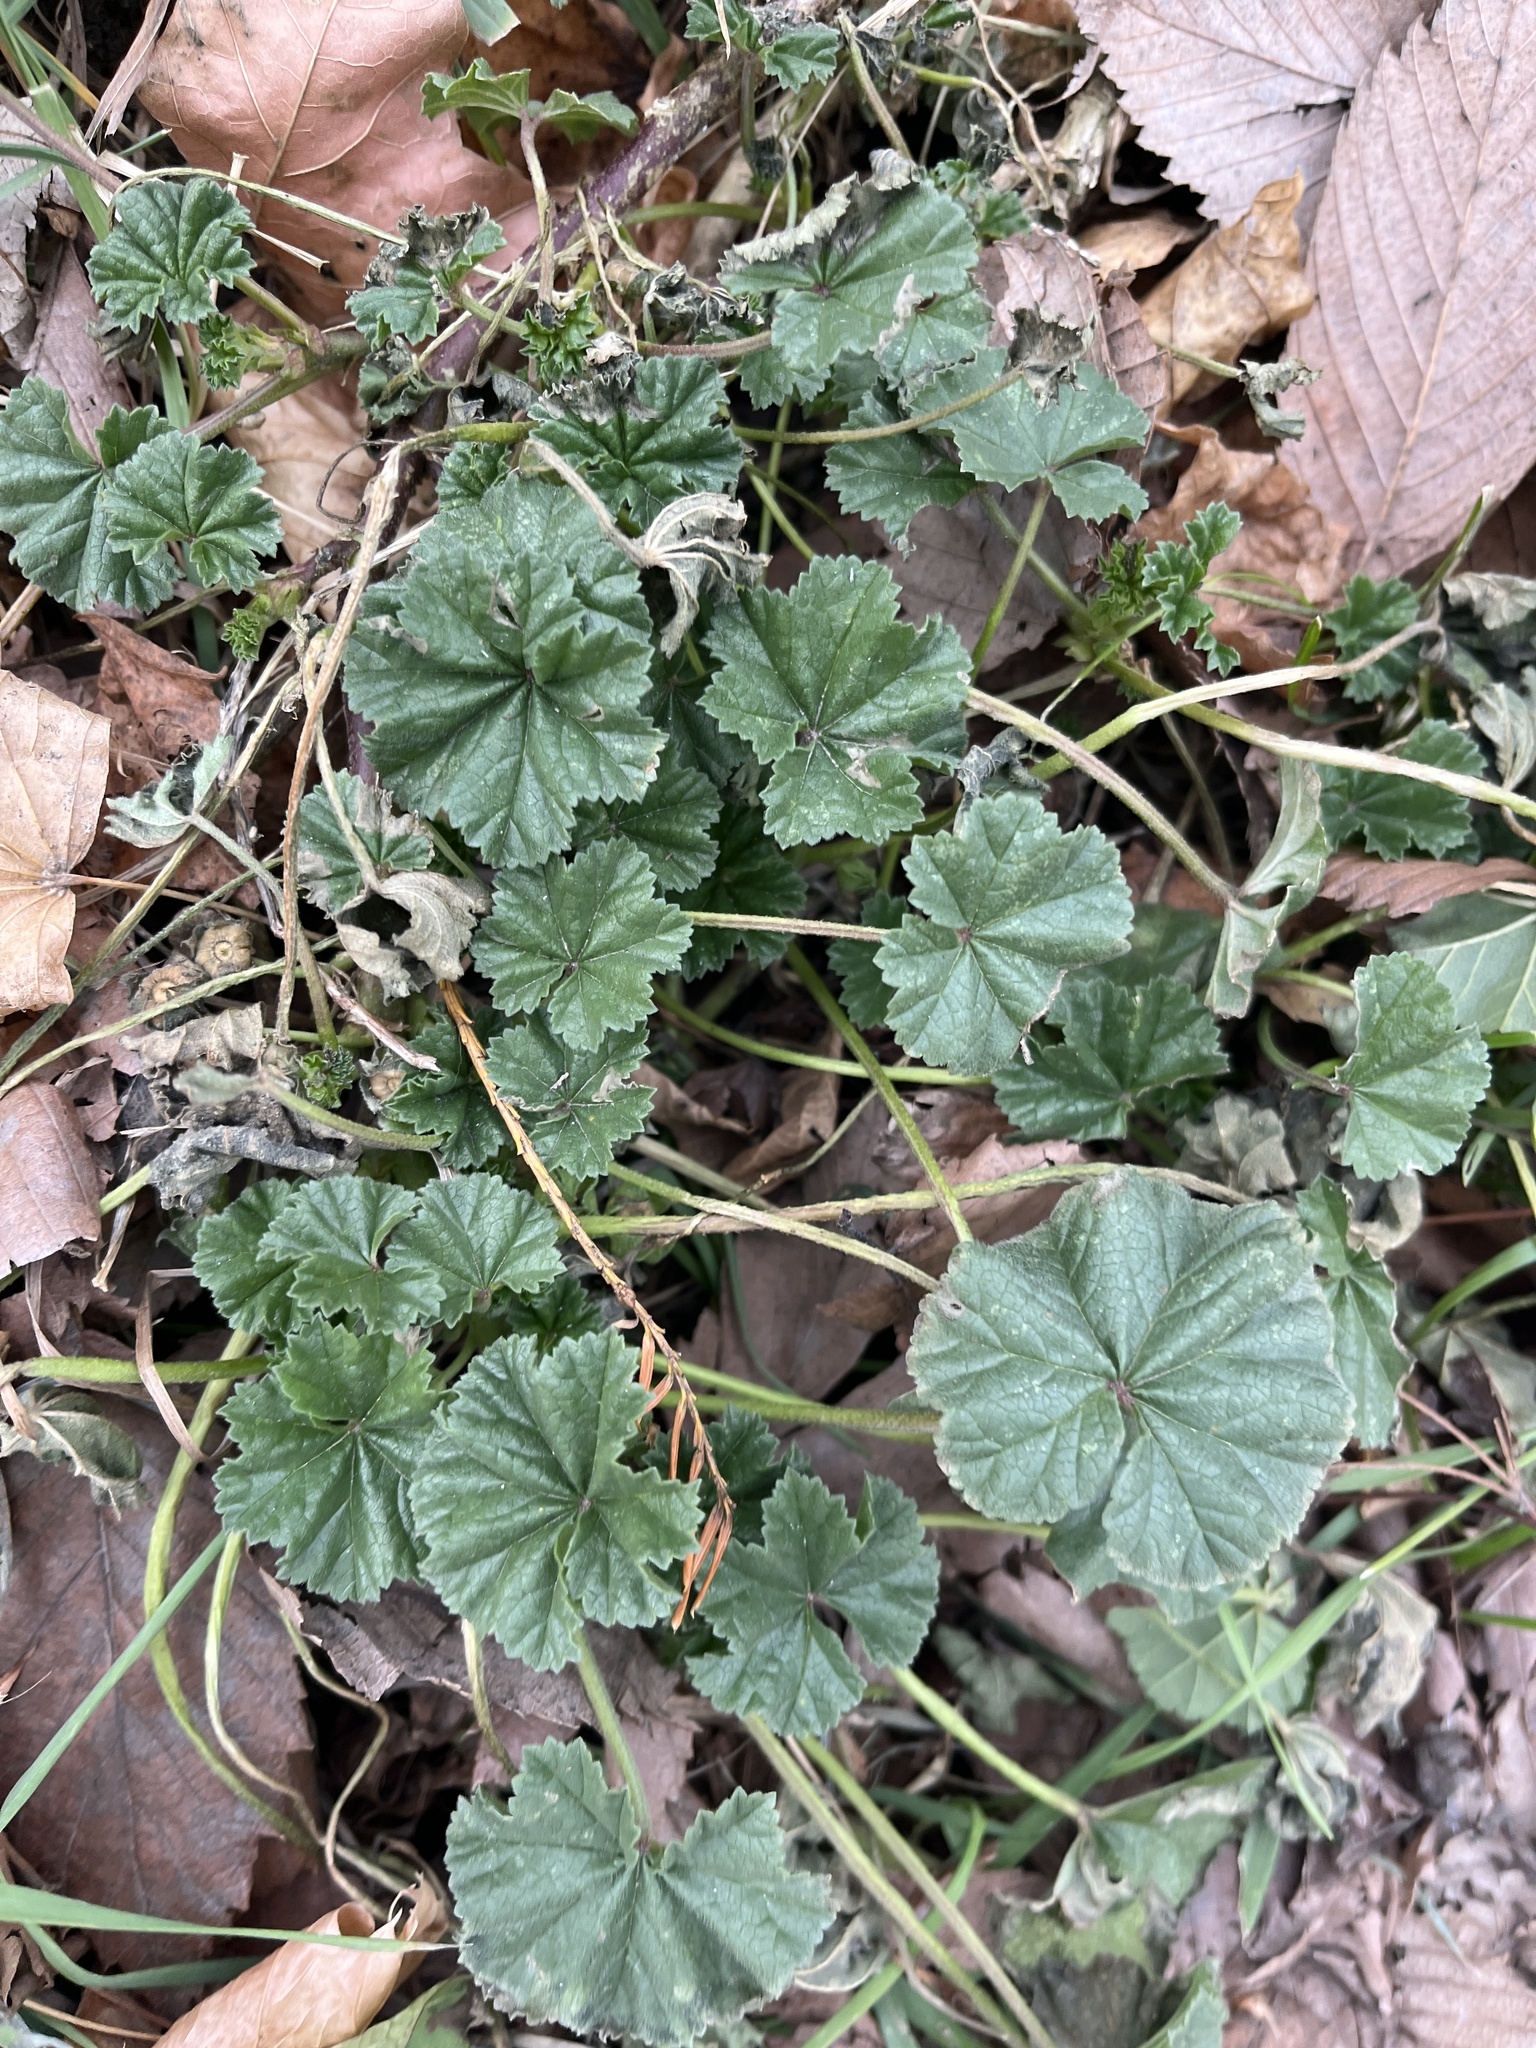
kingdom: Plantae
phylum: Tracheophyta
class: Magnoliopsida
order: Malvales
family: Malvaceae
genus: Malva
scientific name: Malva
